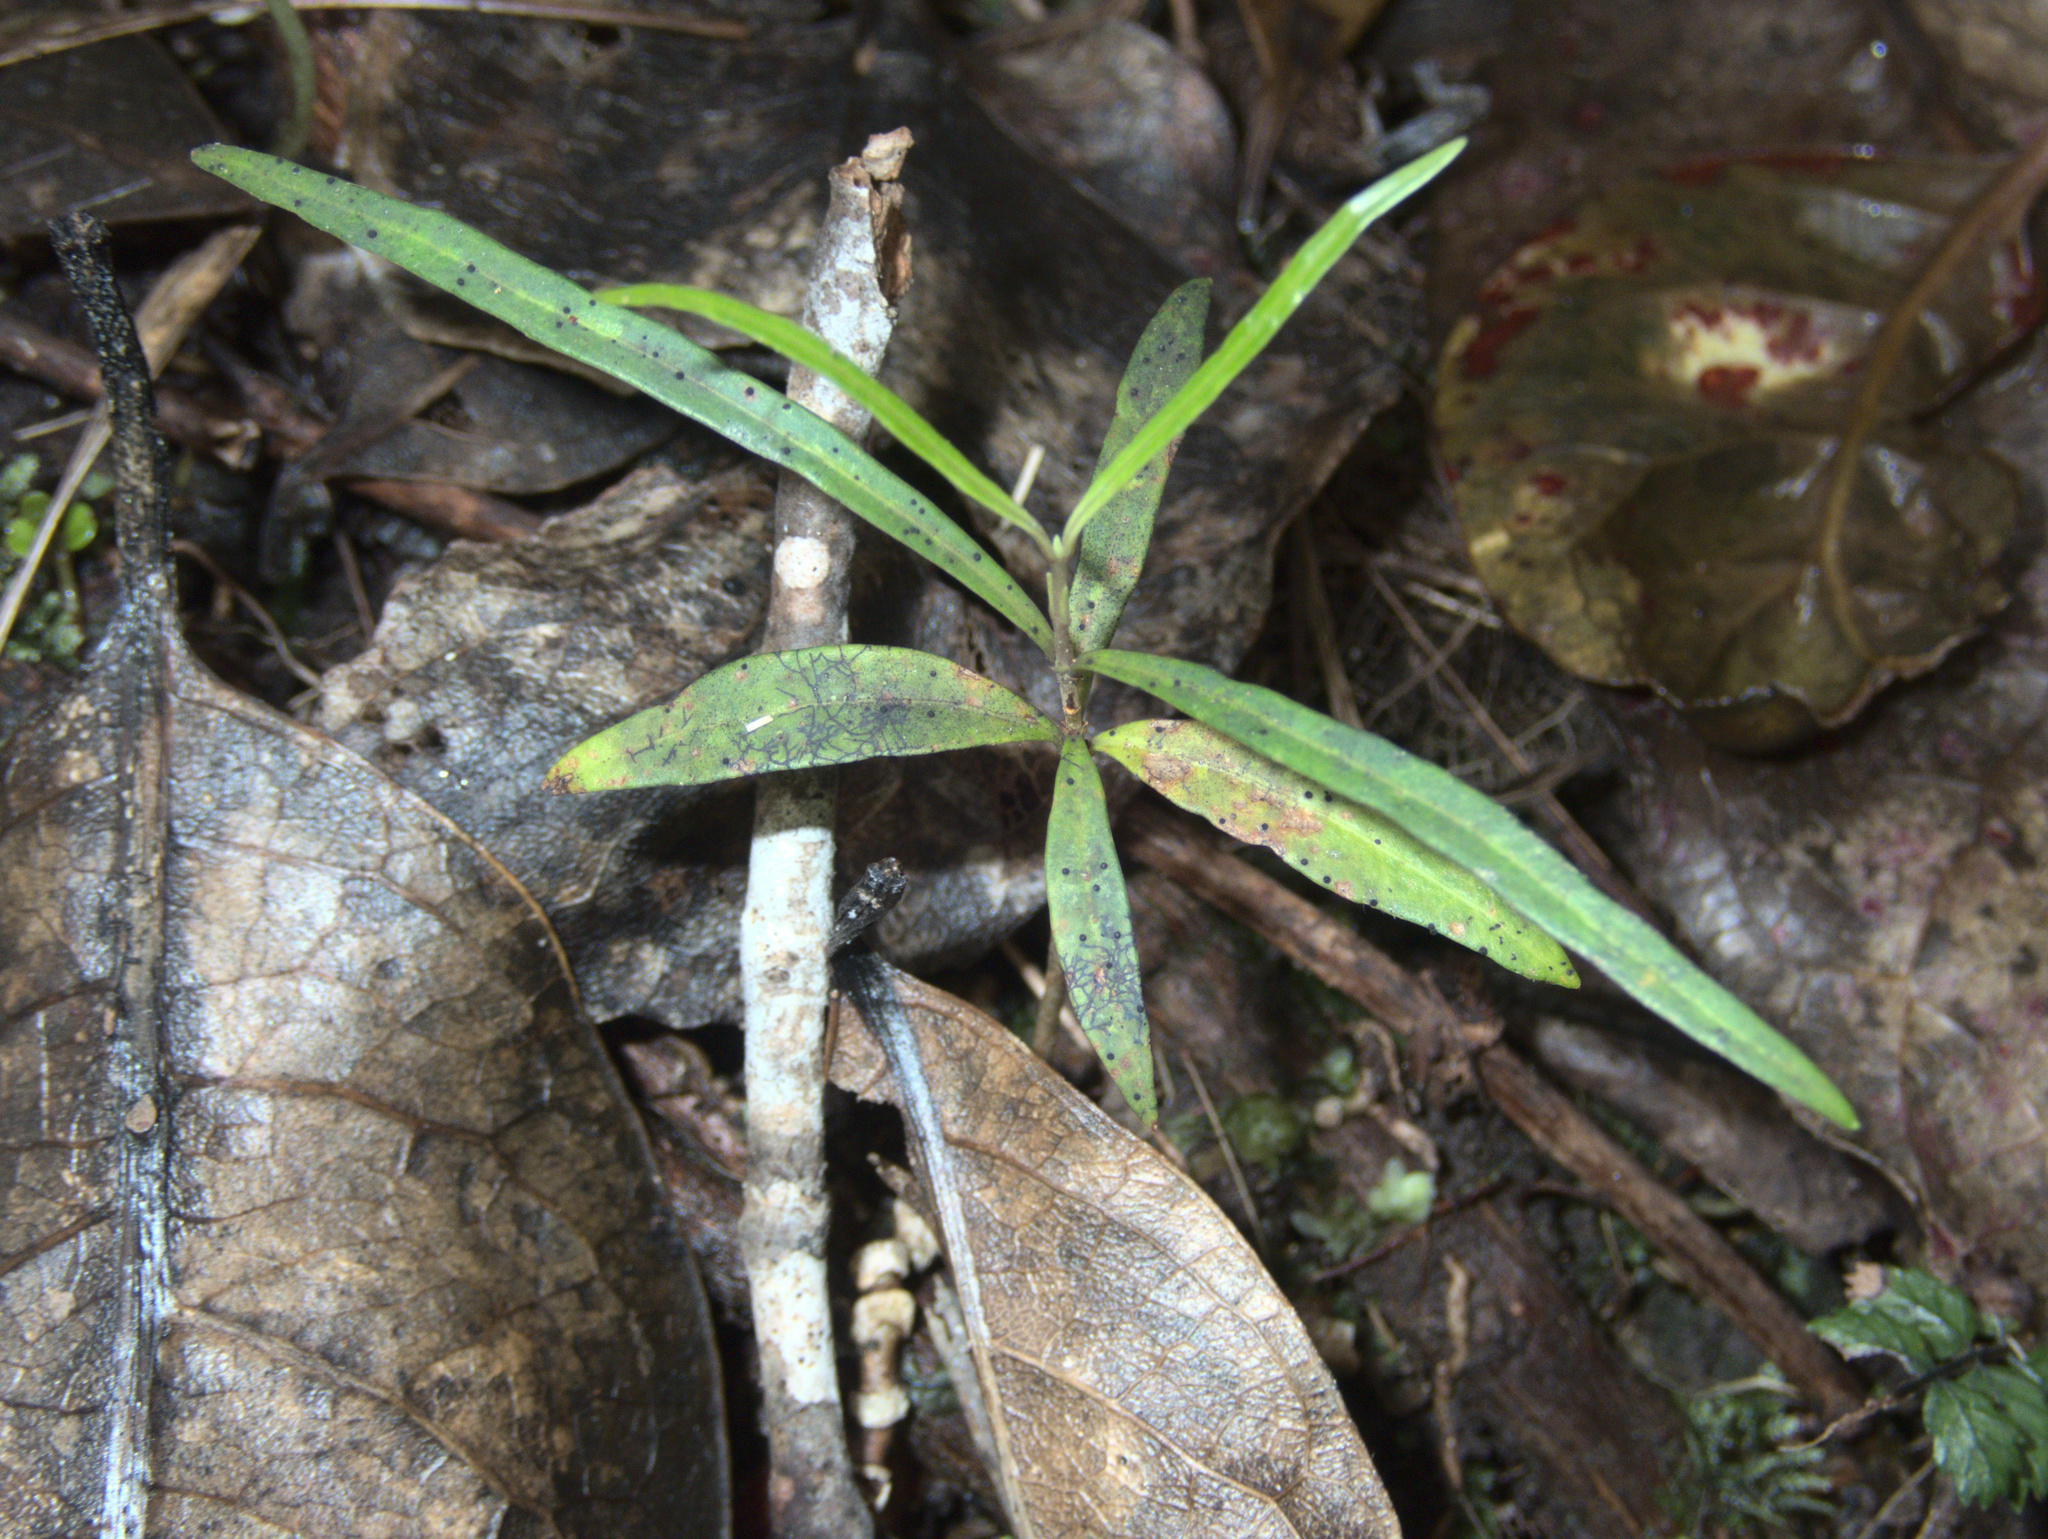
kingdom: Plantae
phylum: Tracheophyta
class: Magnoliopsida
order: Lamiales
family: Oleaceae
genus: Nestegis
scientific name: Nestegis lanceolata
